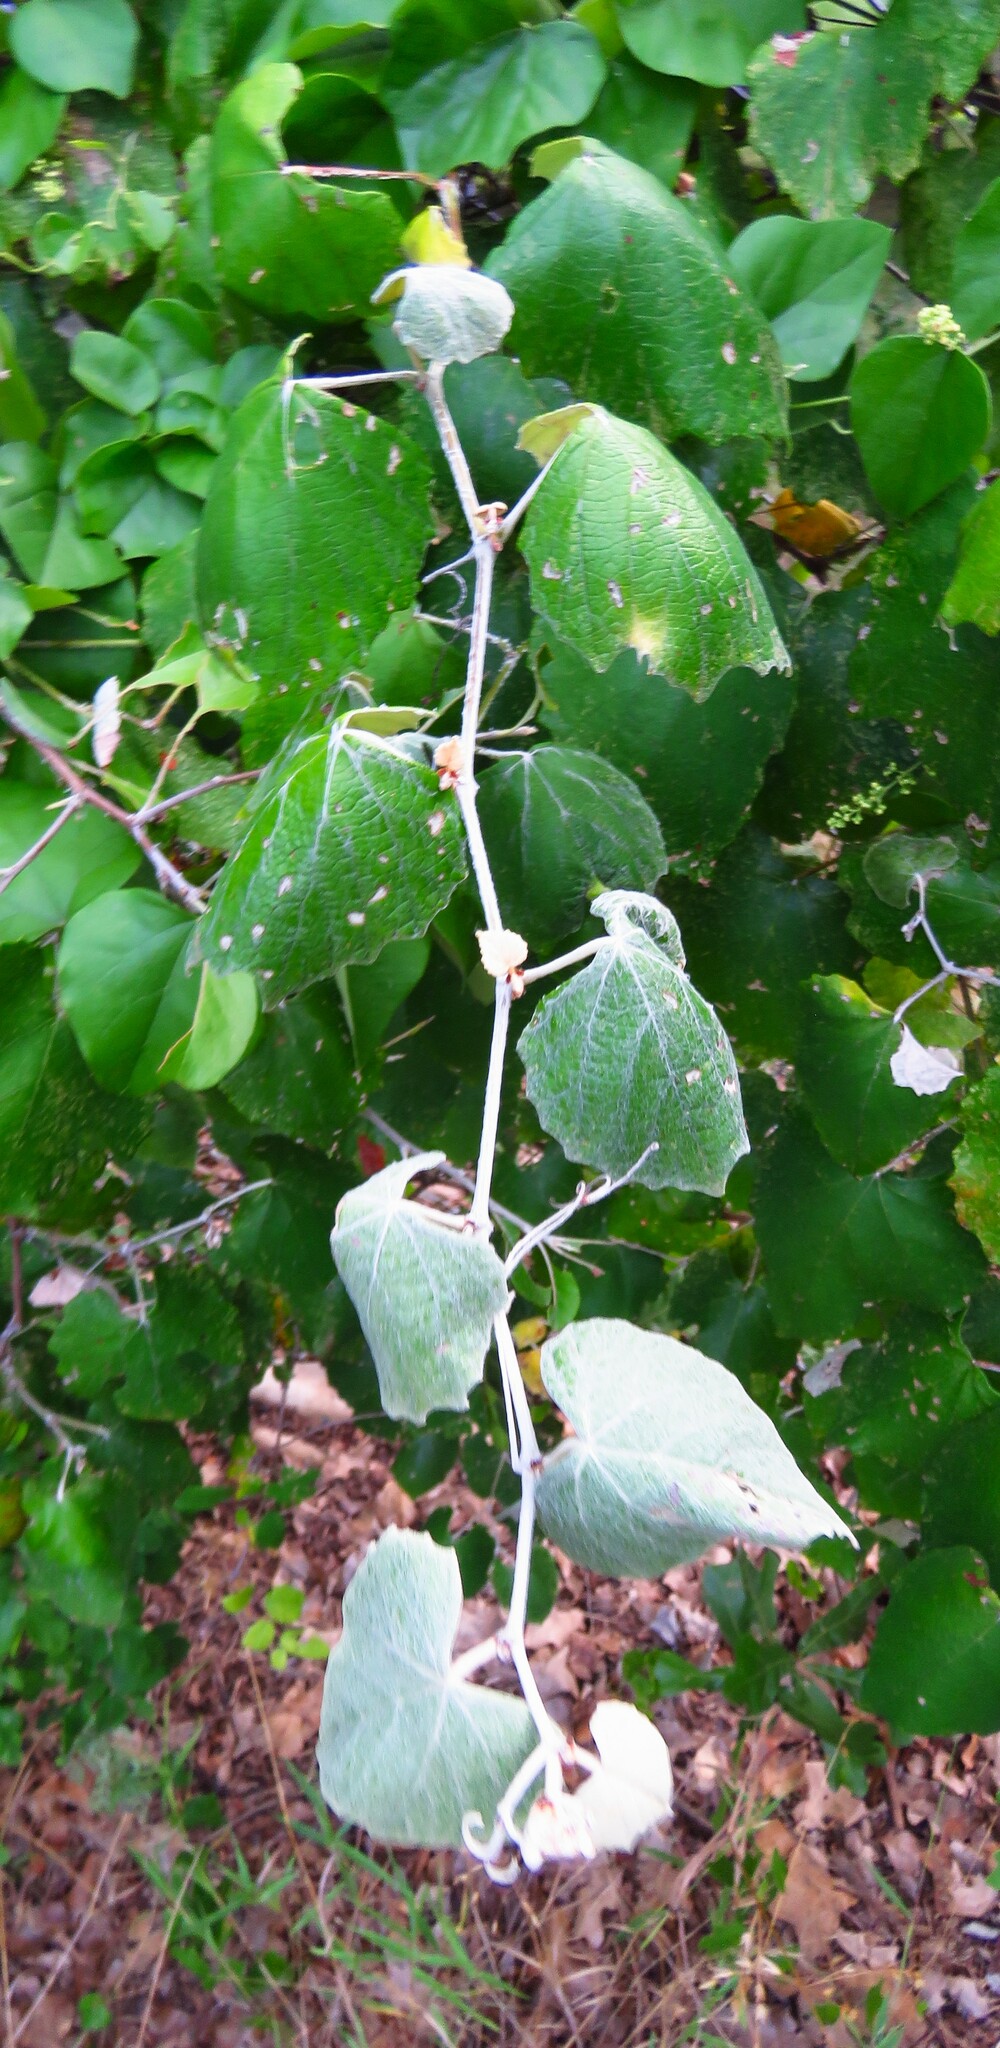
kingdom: Plantae
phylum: Tracheophyta
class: Magnoliopsida
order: Vitales
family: Vitaceae
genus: Vitis
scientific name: Vitis mustangensis
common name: Mustang grape
